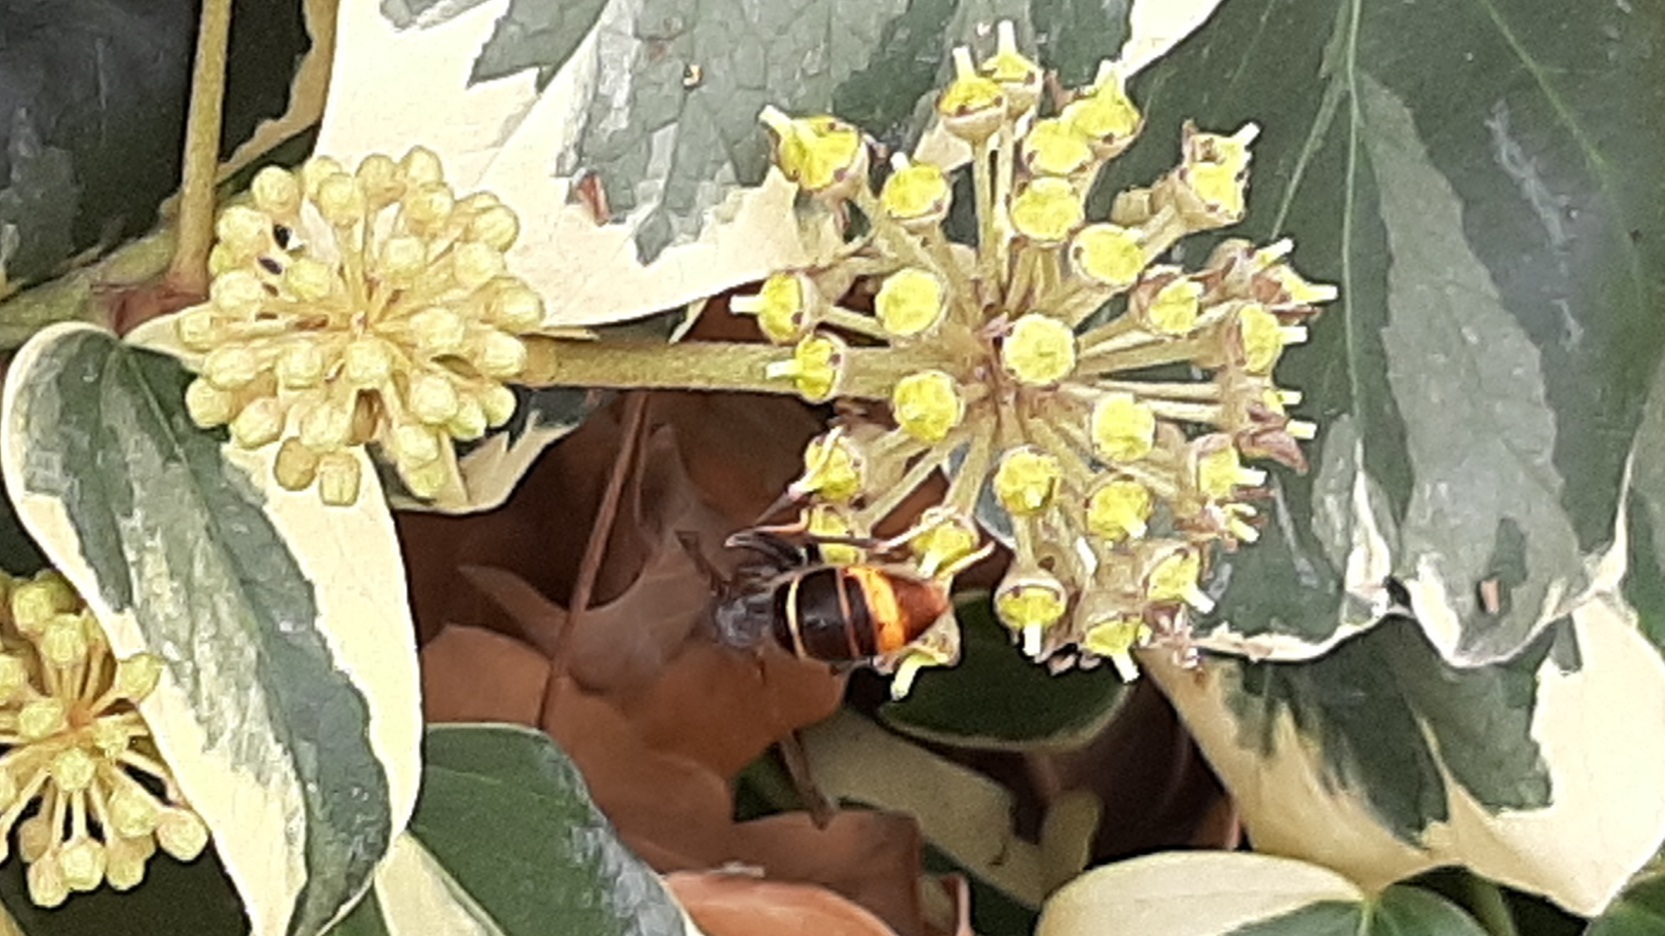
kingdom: Animalia
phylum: Arthropoda
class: Insecta
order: Hymenoptera
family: Vespidae
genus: Vespa
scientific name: Vespa velutina
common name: Asian hornet
